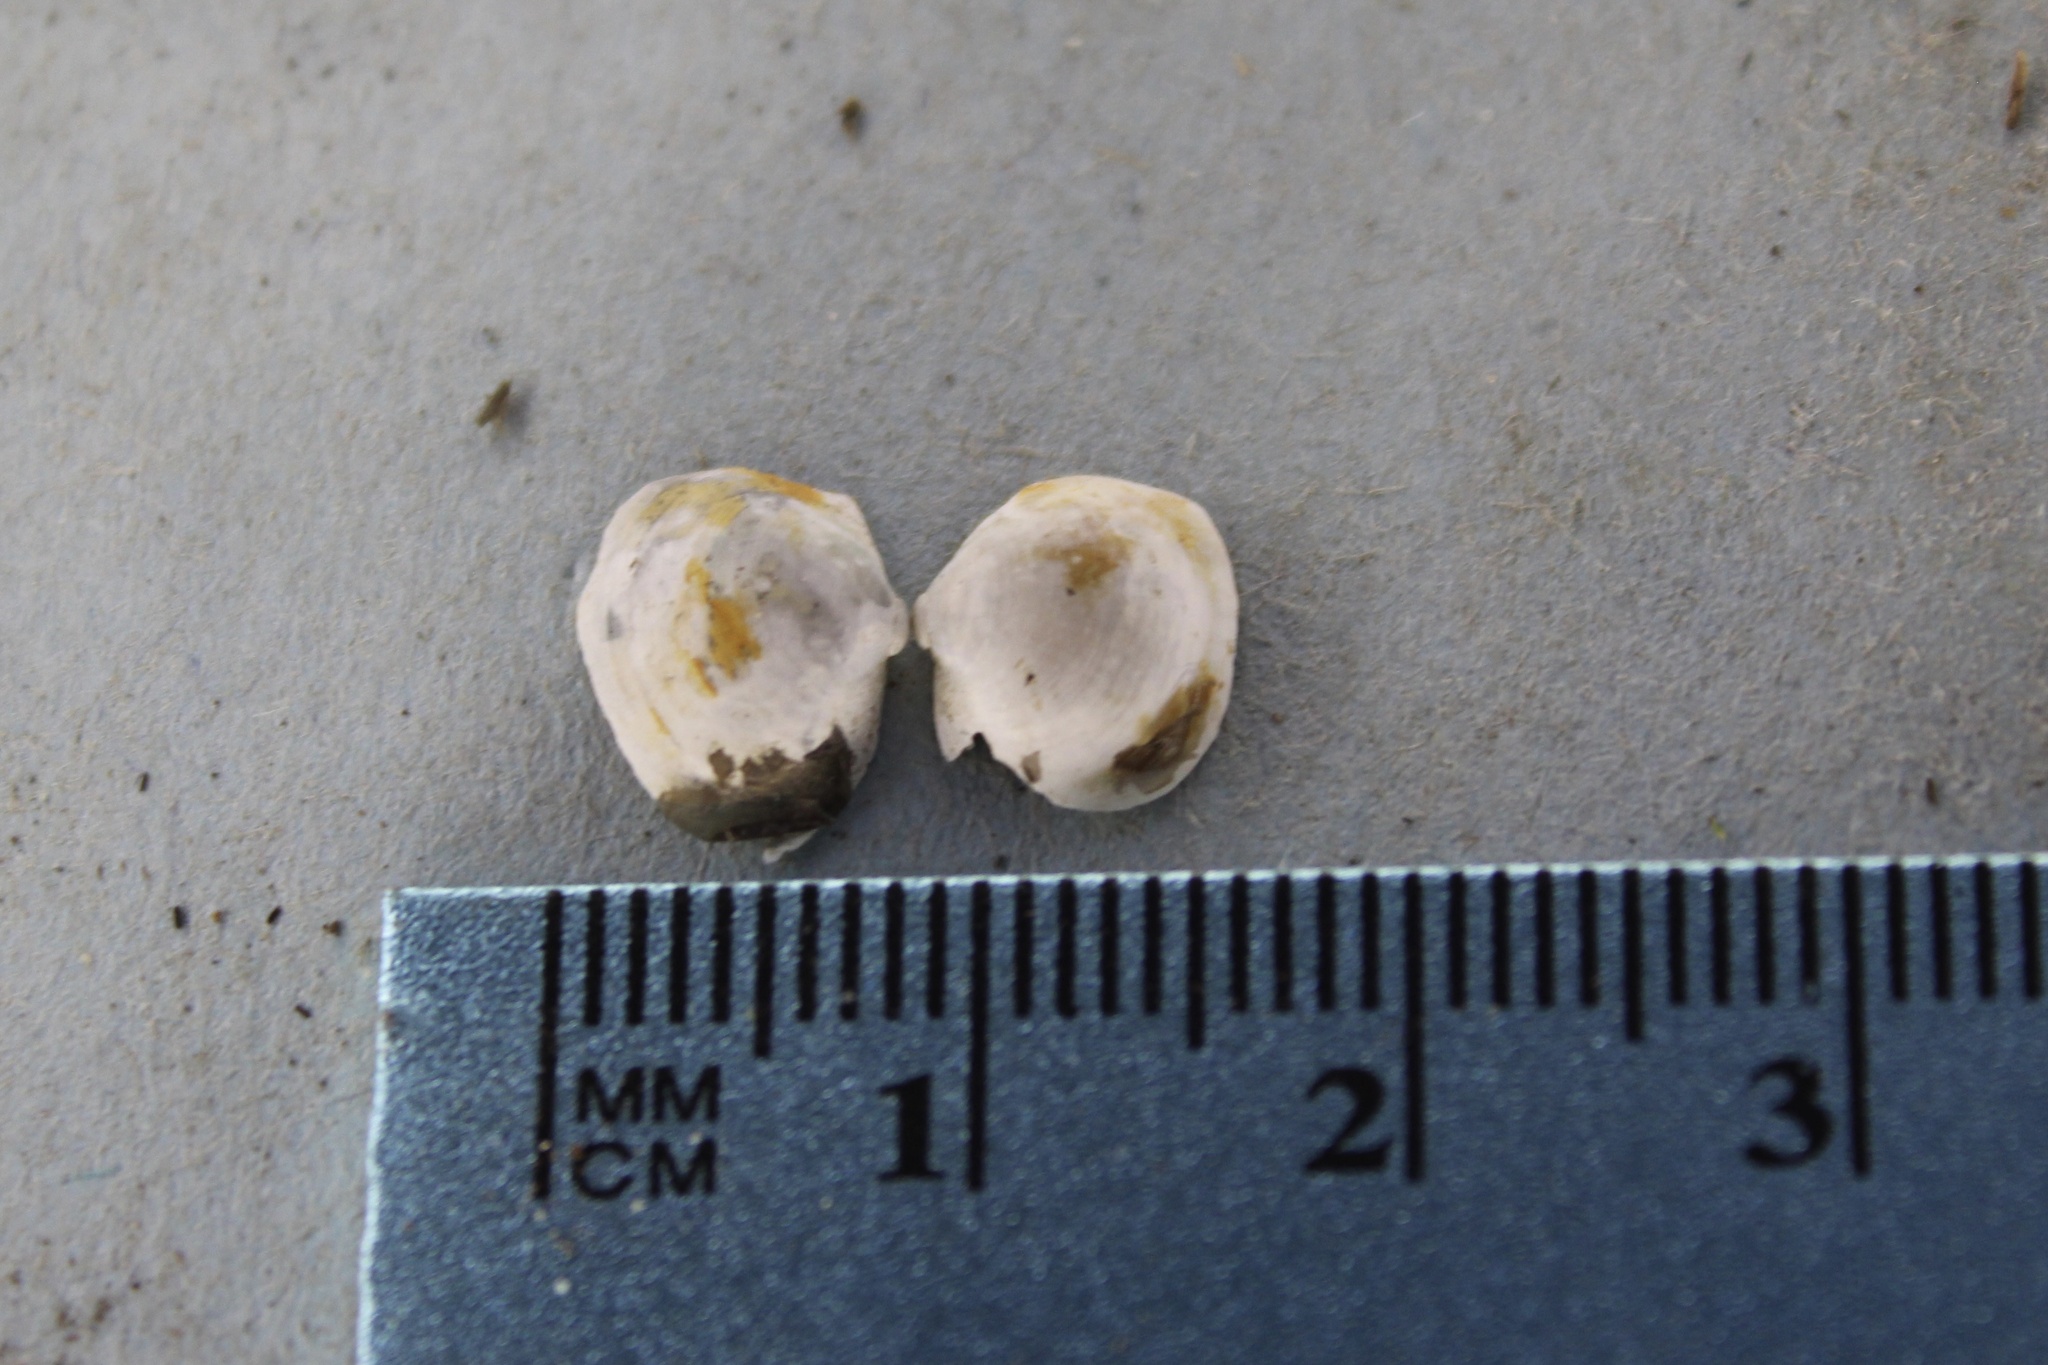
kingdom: Animalia
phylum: Mollusca
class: Bivalvia
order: Sphaeriida
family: Sphaeriidae
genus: Musculium
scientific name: Musculium lacustre
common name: Lake fingernailclam
